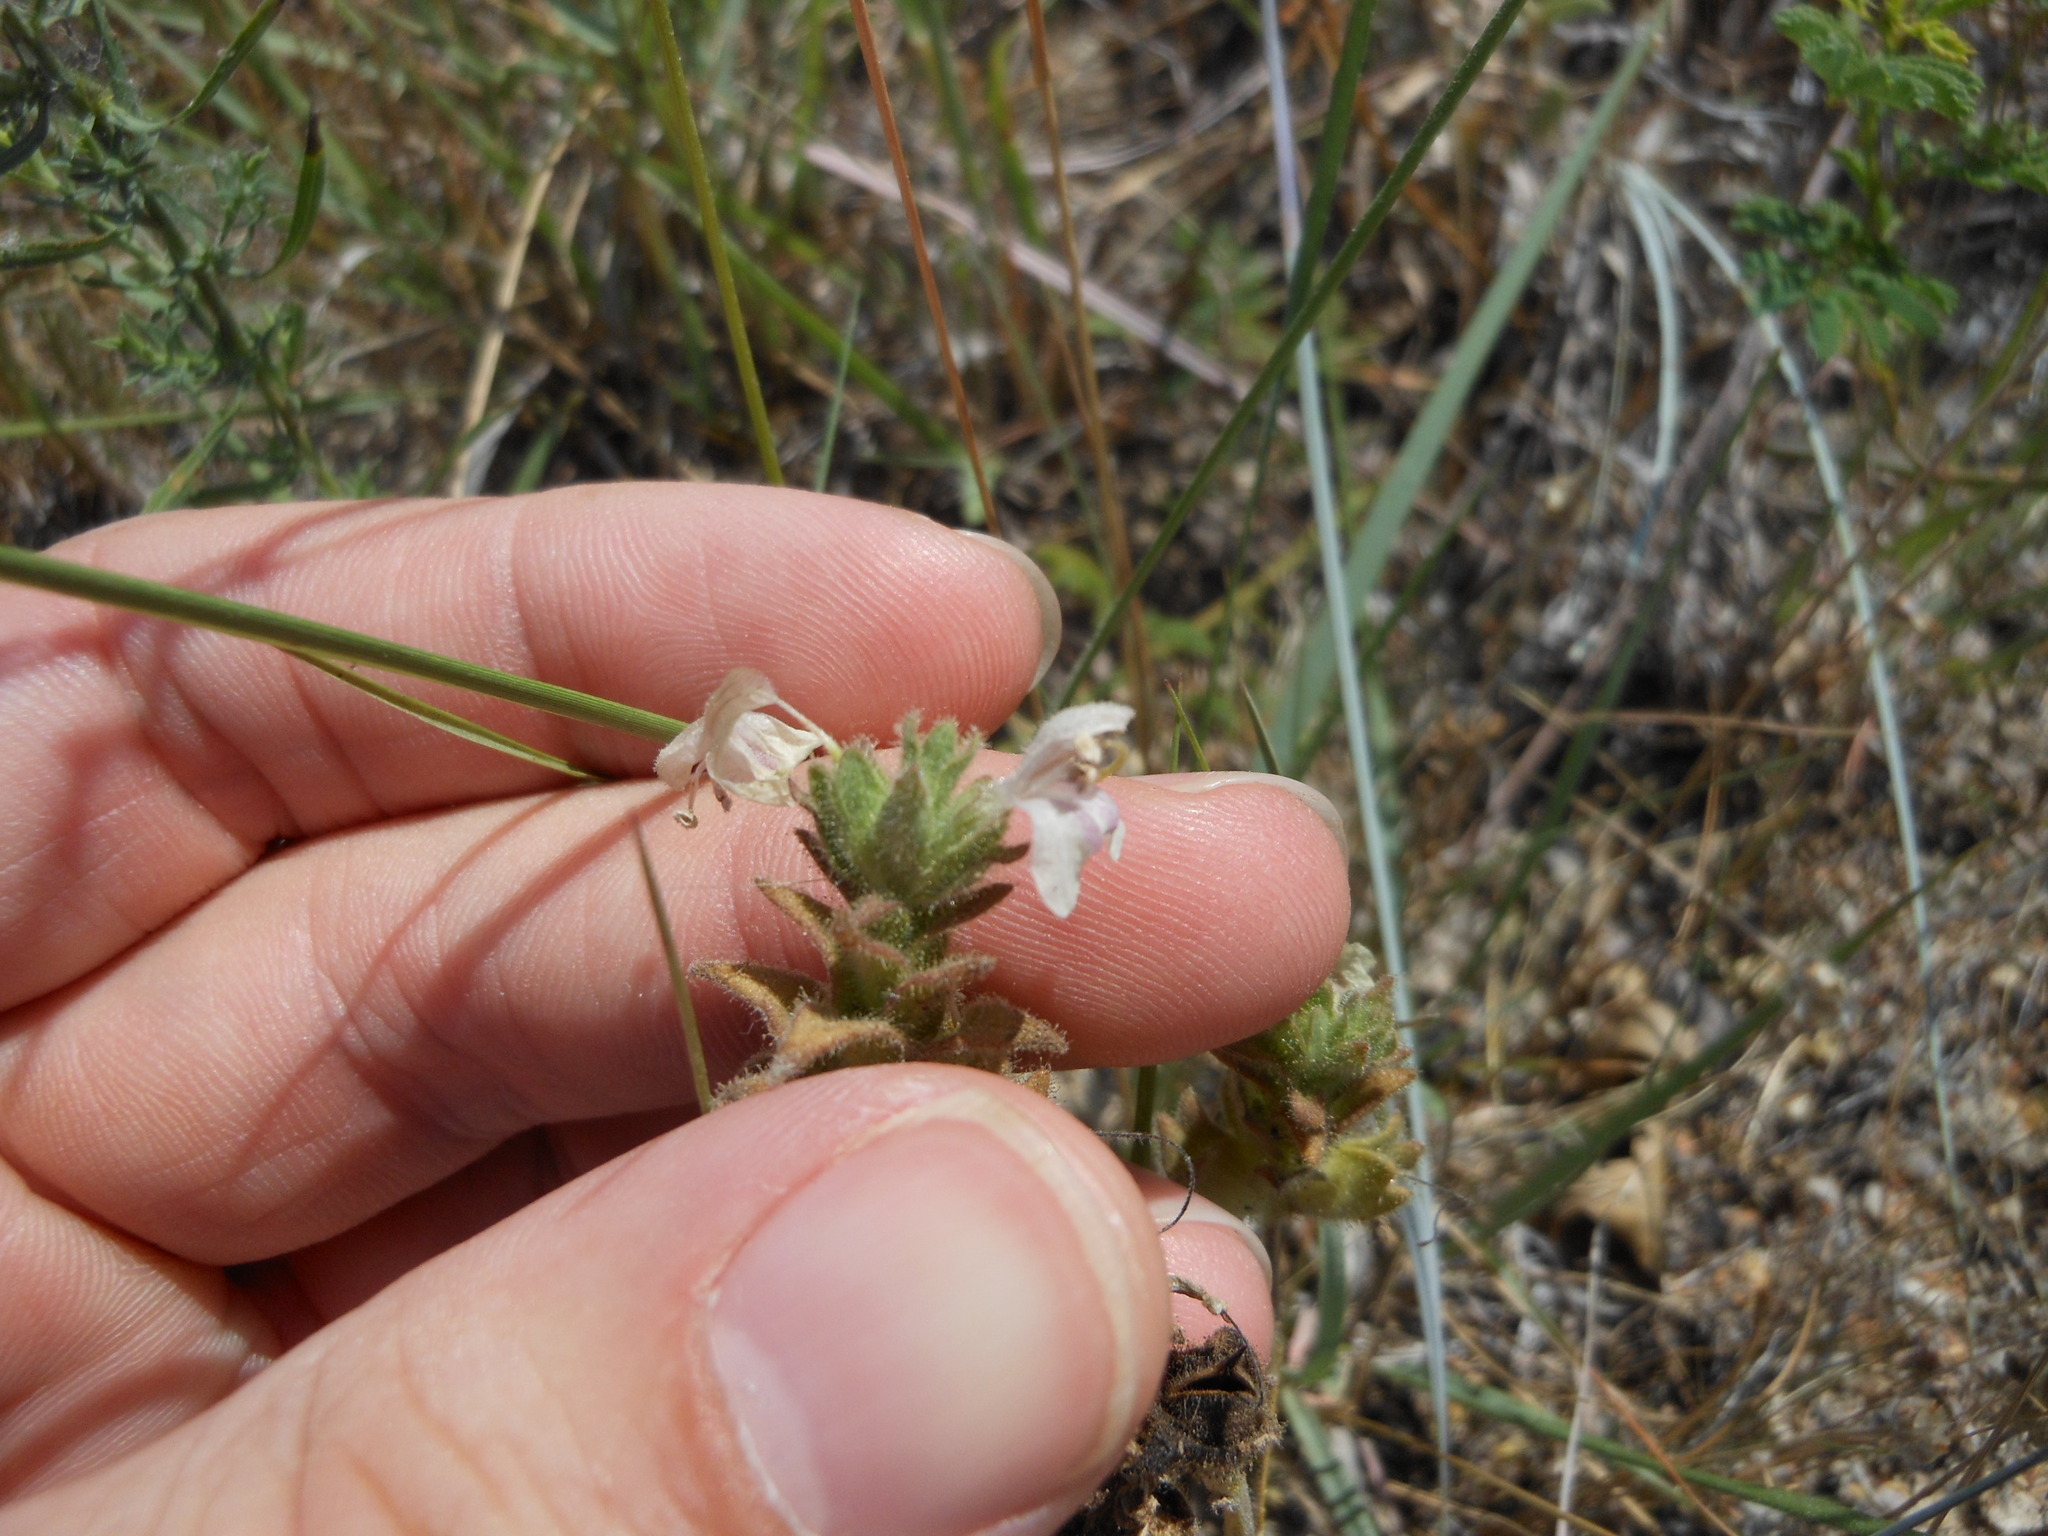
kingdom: Plantae
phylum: Tracheophyta
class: Magnoliopsida
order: Lamiales
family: Orobanchaceae
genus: Bellardia
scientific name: Bellardia trixago
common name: Mediterranean lineseed
